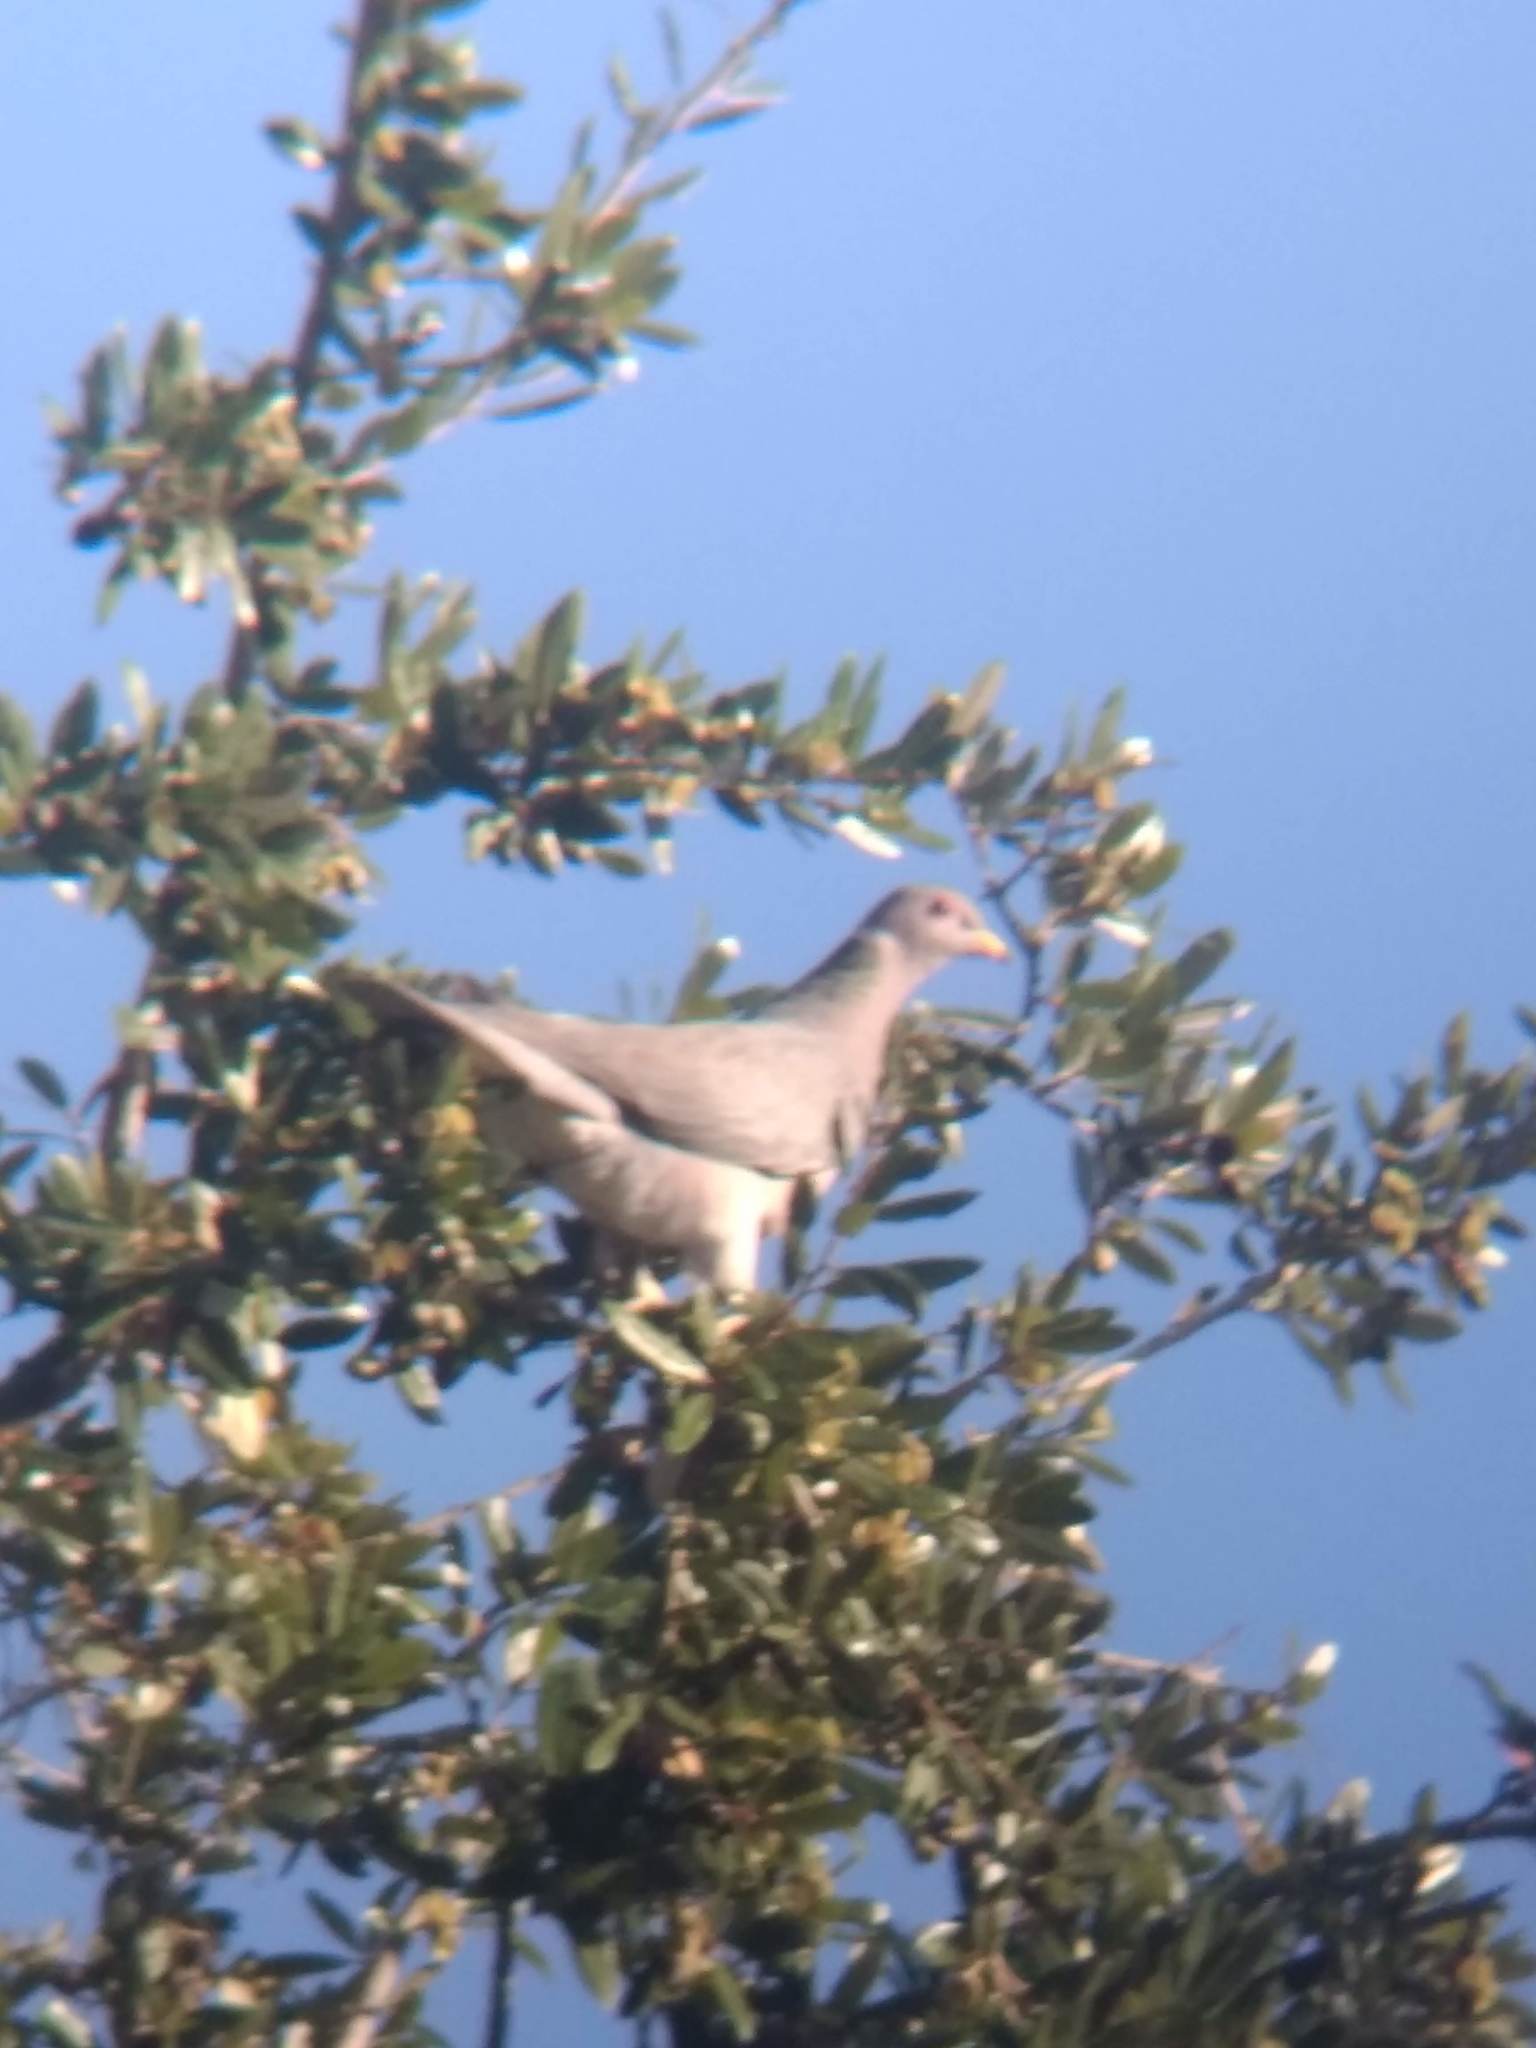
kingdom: Animalia
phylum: Chordata
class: Aves
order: Columbiformes
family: Columbidae
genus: Patagioenas
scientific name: Patagioenas fasciata
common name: Band-tailed pigeon
